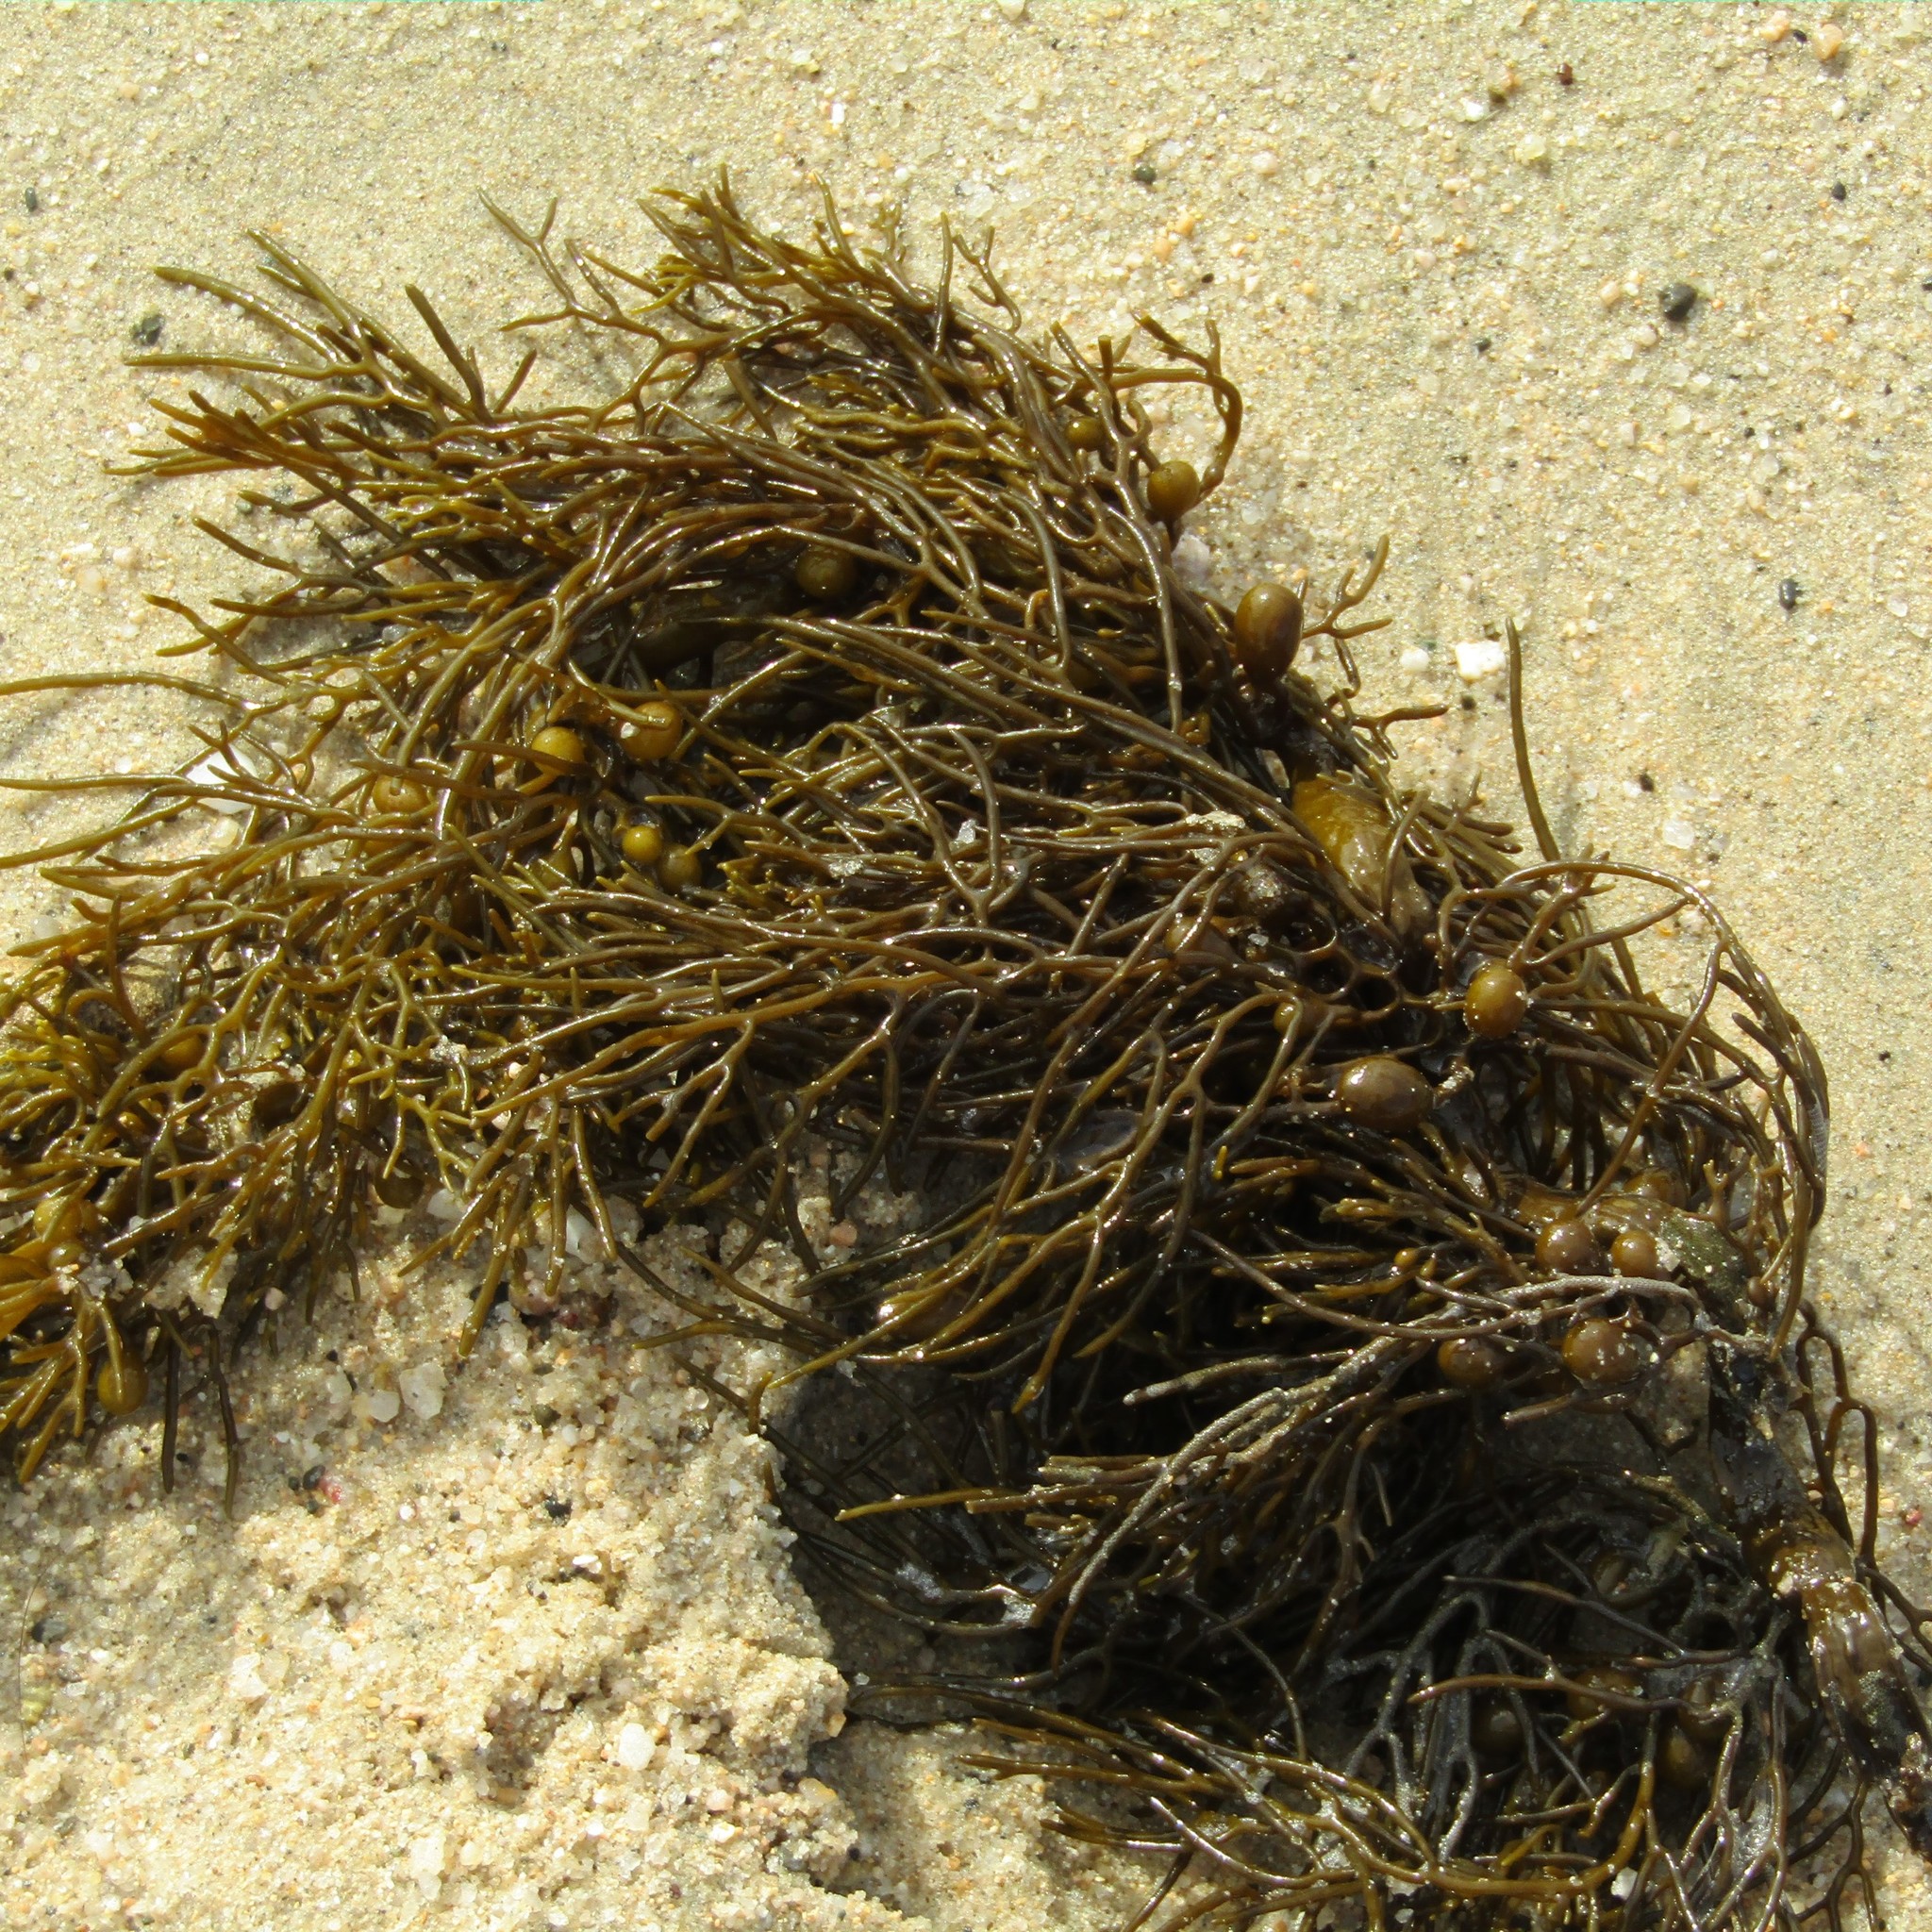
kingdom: Chromista
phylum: Ochrophyta
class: Phaeophyceae
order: Fucales
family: Sargassaceae
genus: Cystophora
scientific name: Cystophora retroflexa
